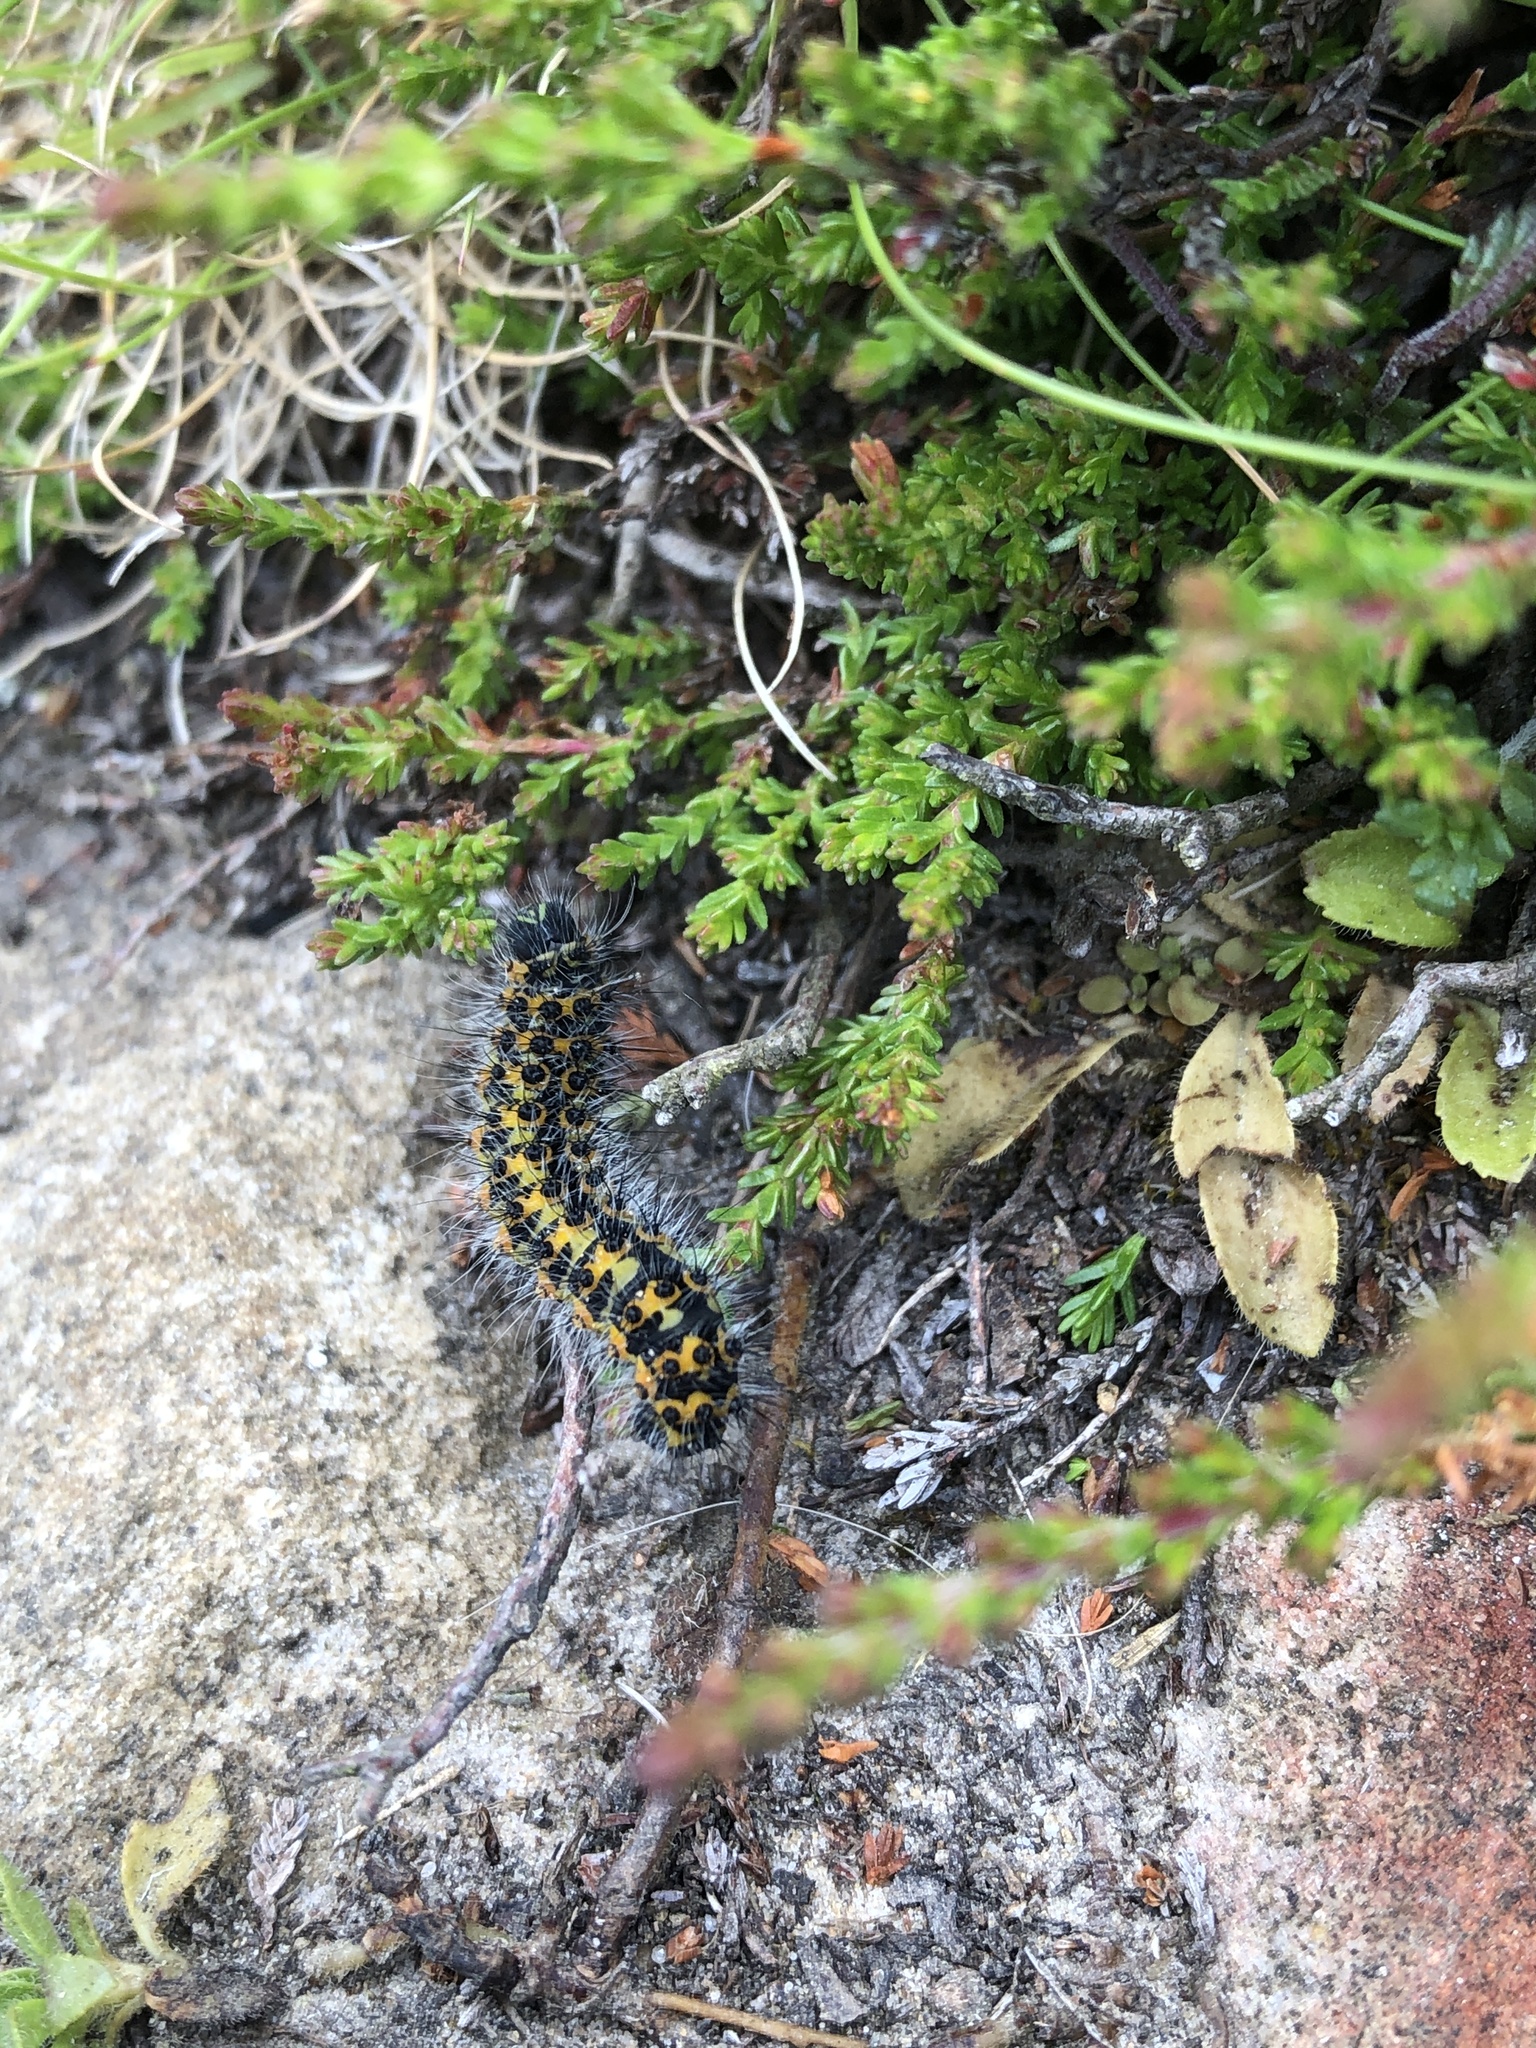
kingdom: Animalia
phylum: Arthropoda
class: Insecta
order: Lepidoptera
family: Saturniidae
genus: Saturnia
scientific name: Saturnia pavonia
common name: Emperor moth
